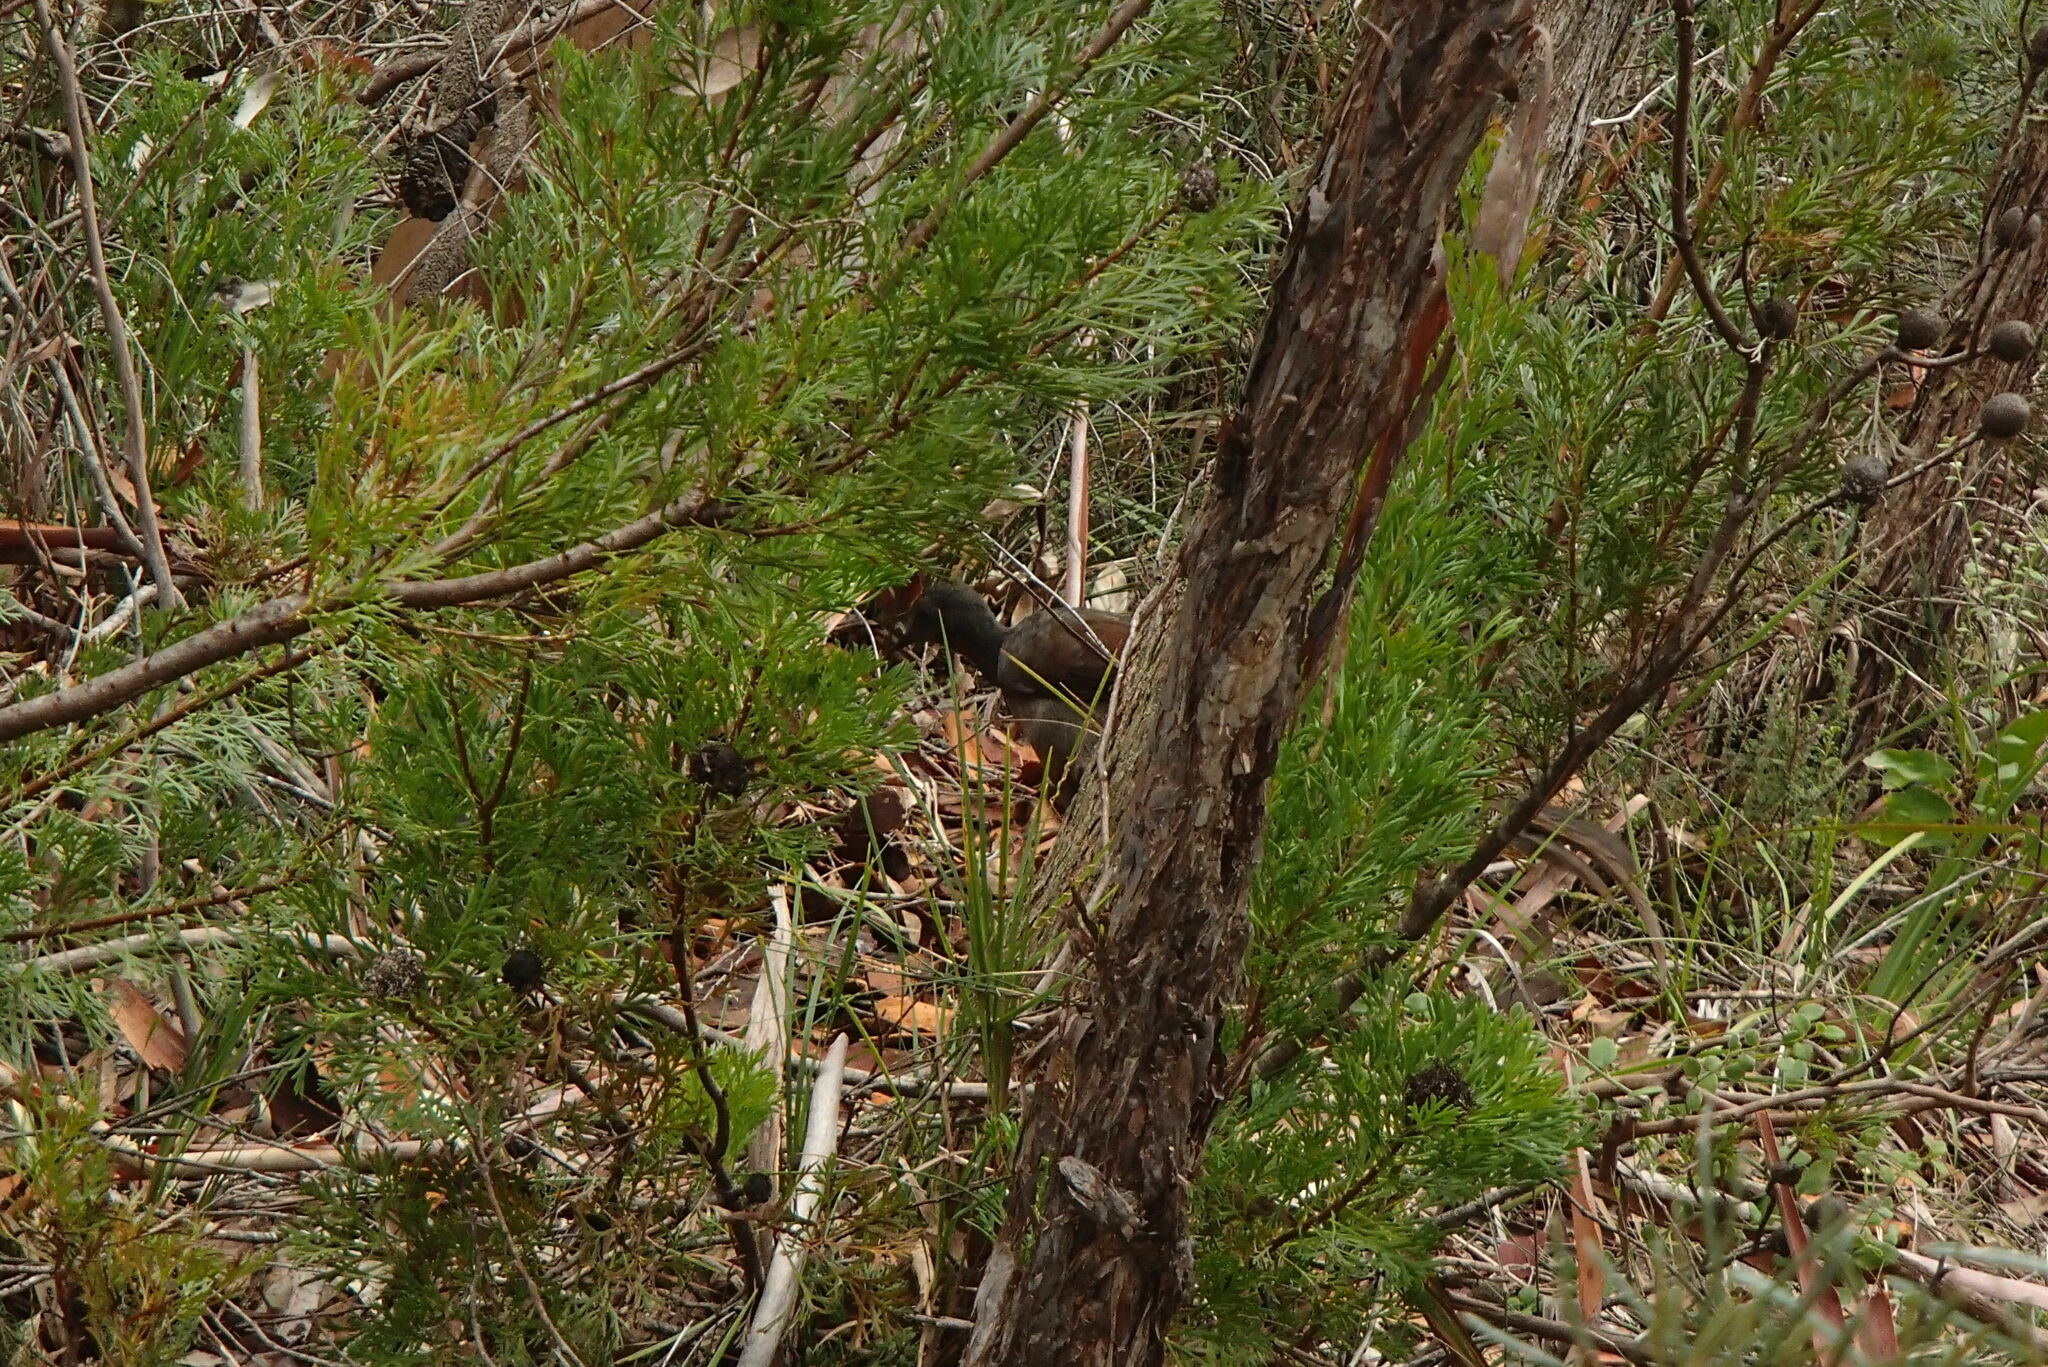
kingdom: Animalia
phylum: Chordata
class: Aves
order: Passeriformes
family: Menuridae
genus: Menura
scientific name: Menura novaehollandiae
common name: Superb lyrebird
